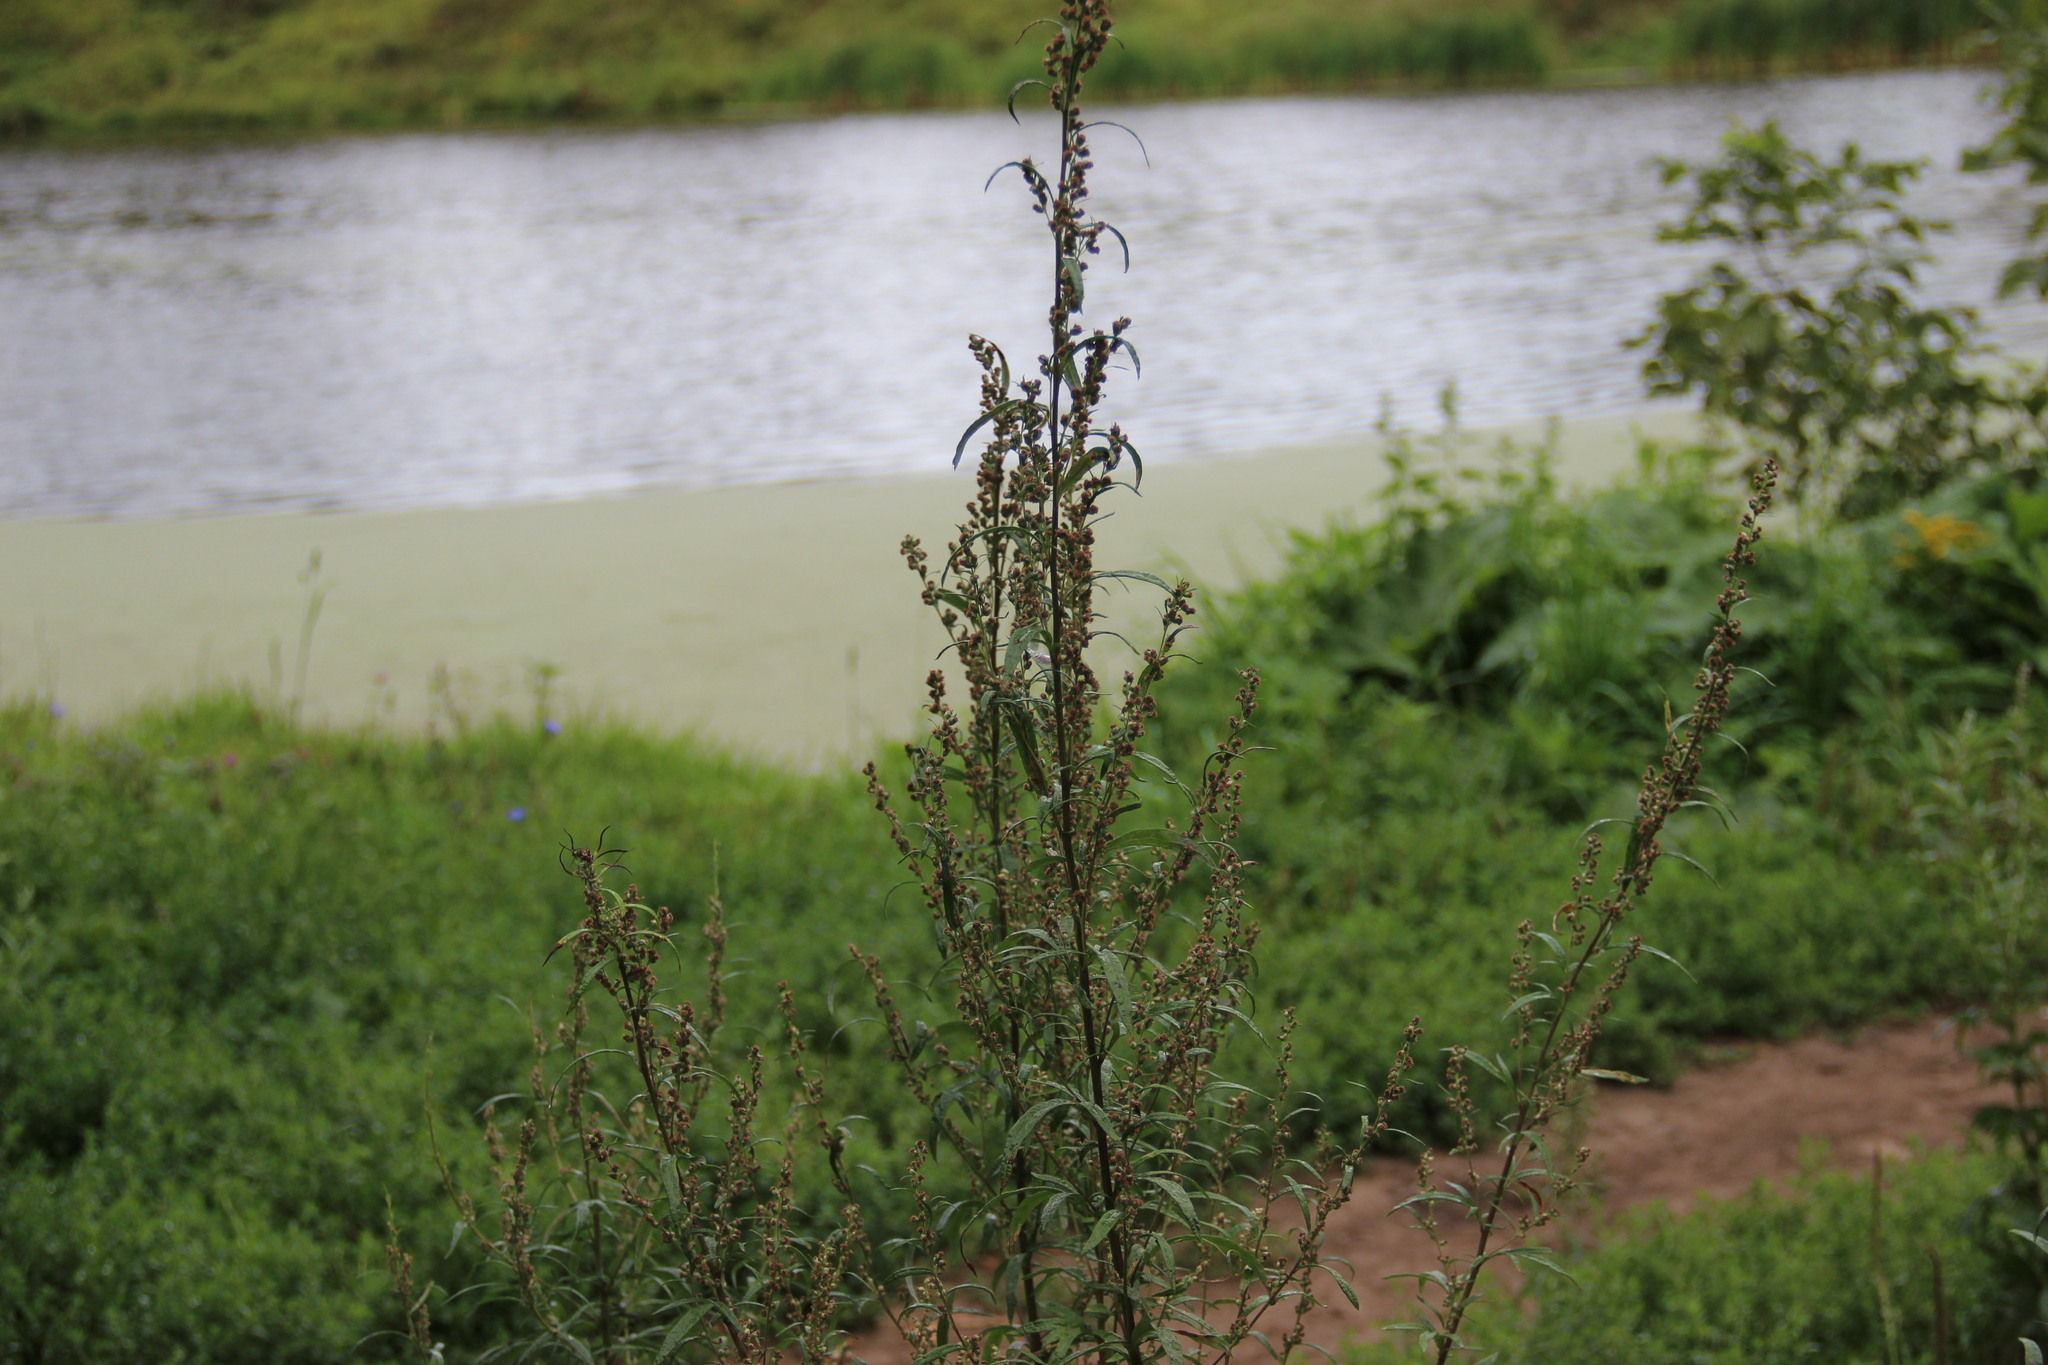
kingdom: Plantae
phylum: Tracheophyta
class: Magnoliopsida
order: Asterales
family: Asteraceae
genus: Artemisia
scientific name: Artemisia vulgaris
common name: Mugwort
